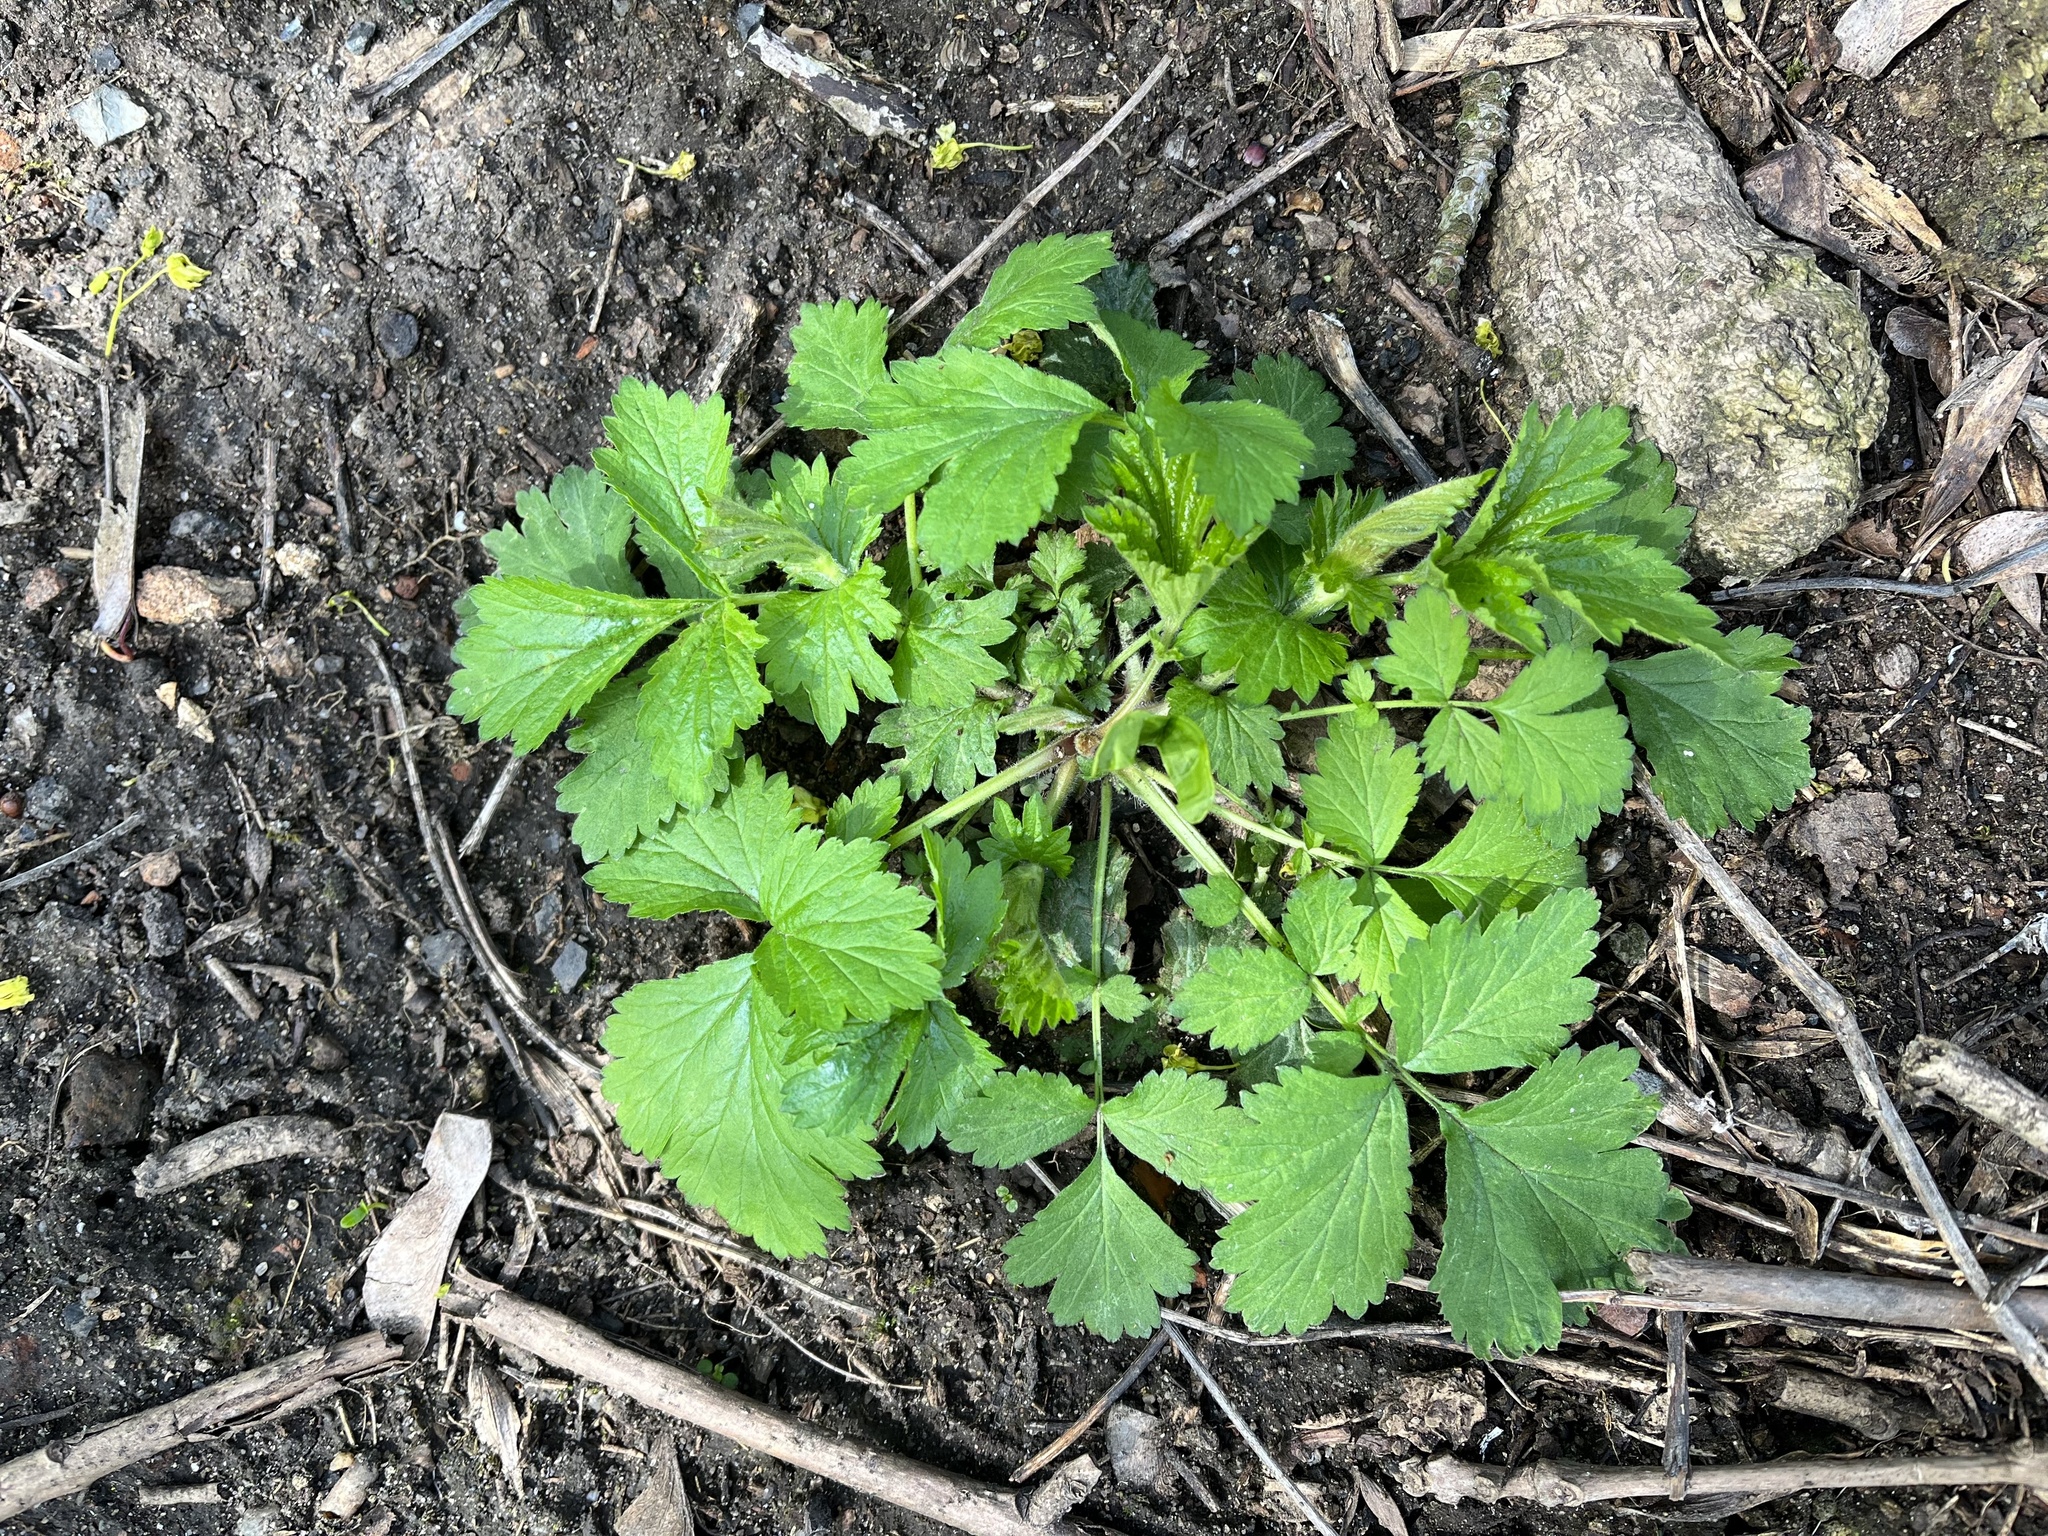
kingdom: Plantae
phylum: Tracheophyta
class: Magnoliopsida
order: Rosales
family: Rosaceae
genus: Geum
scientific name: Geum urbanum
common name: Wood avens
